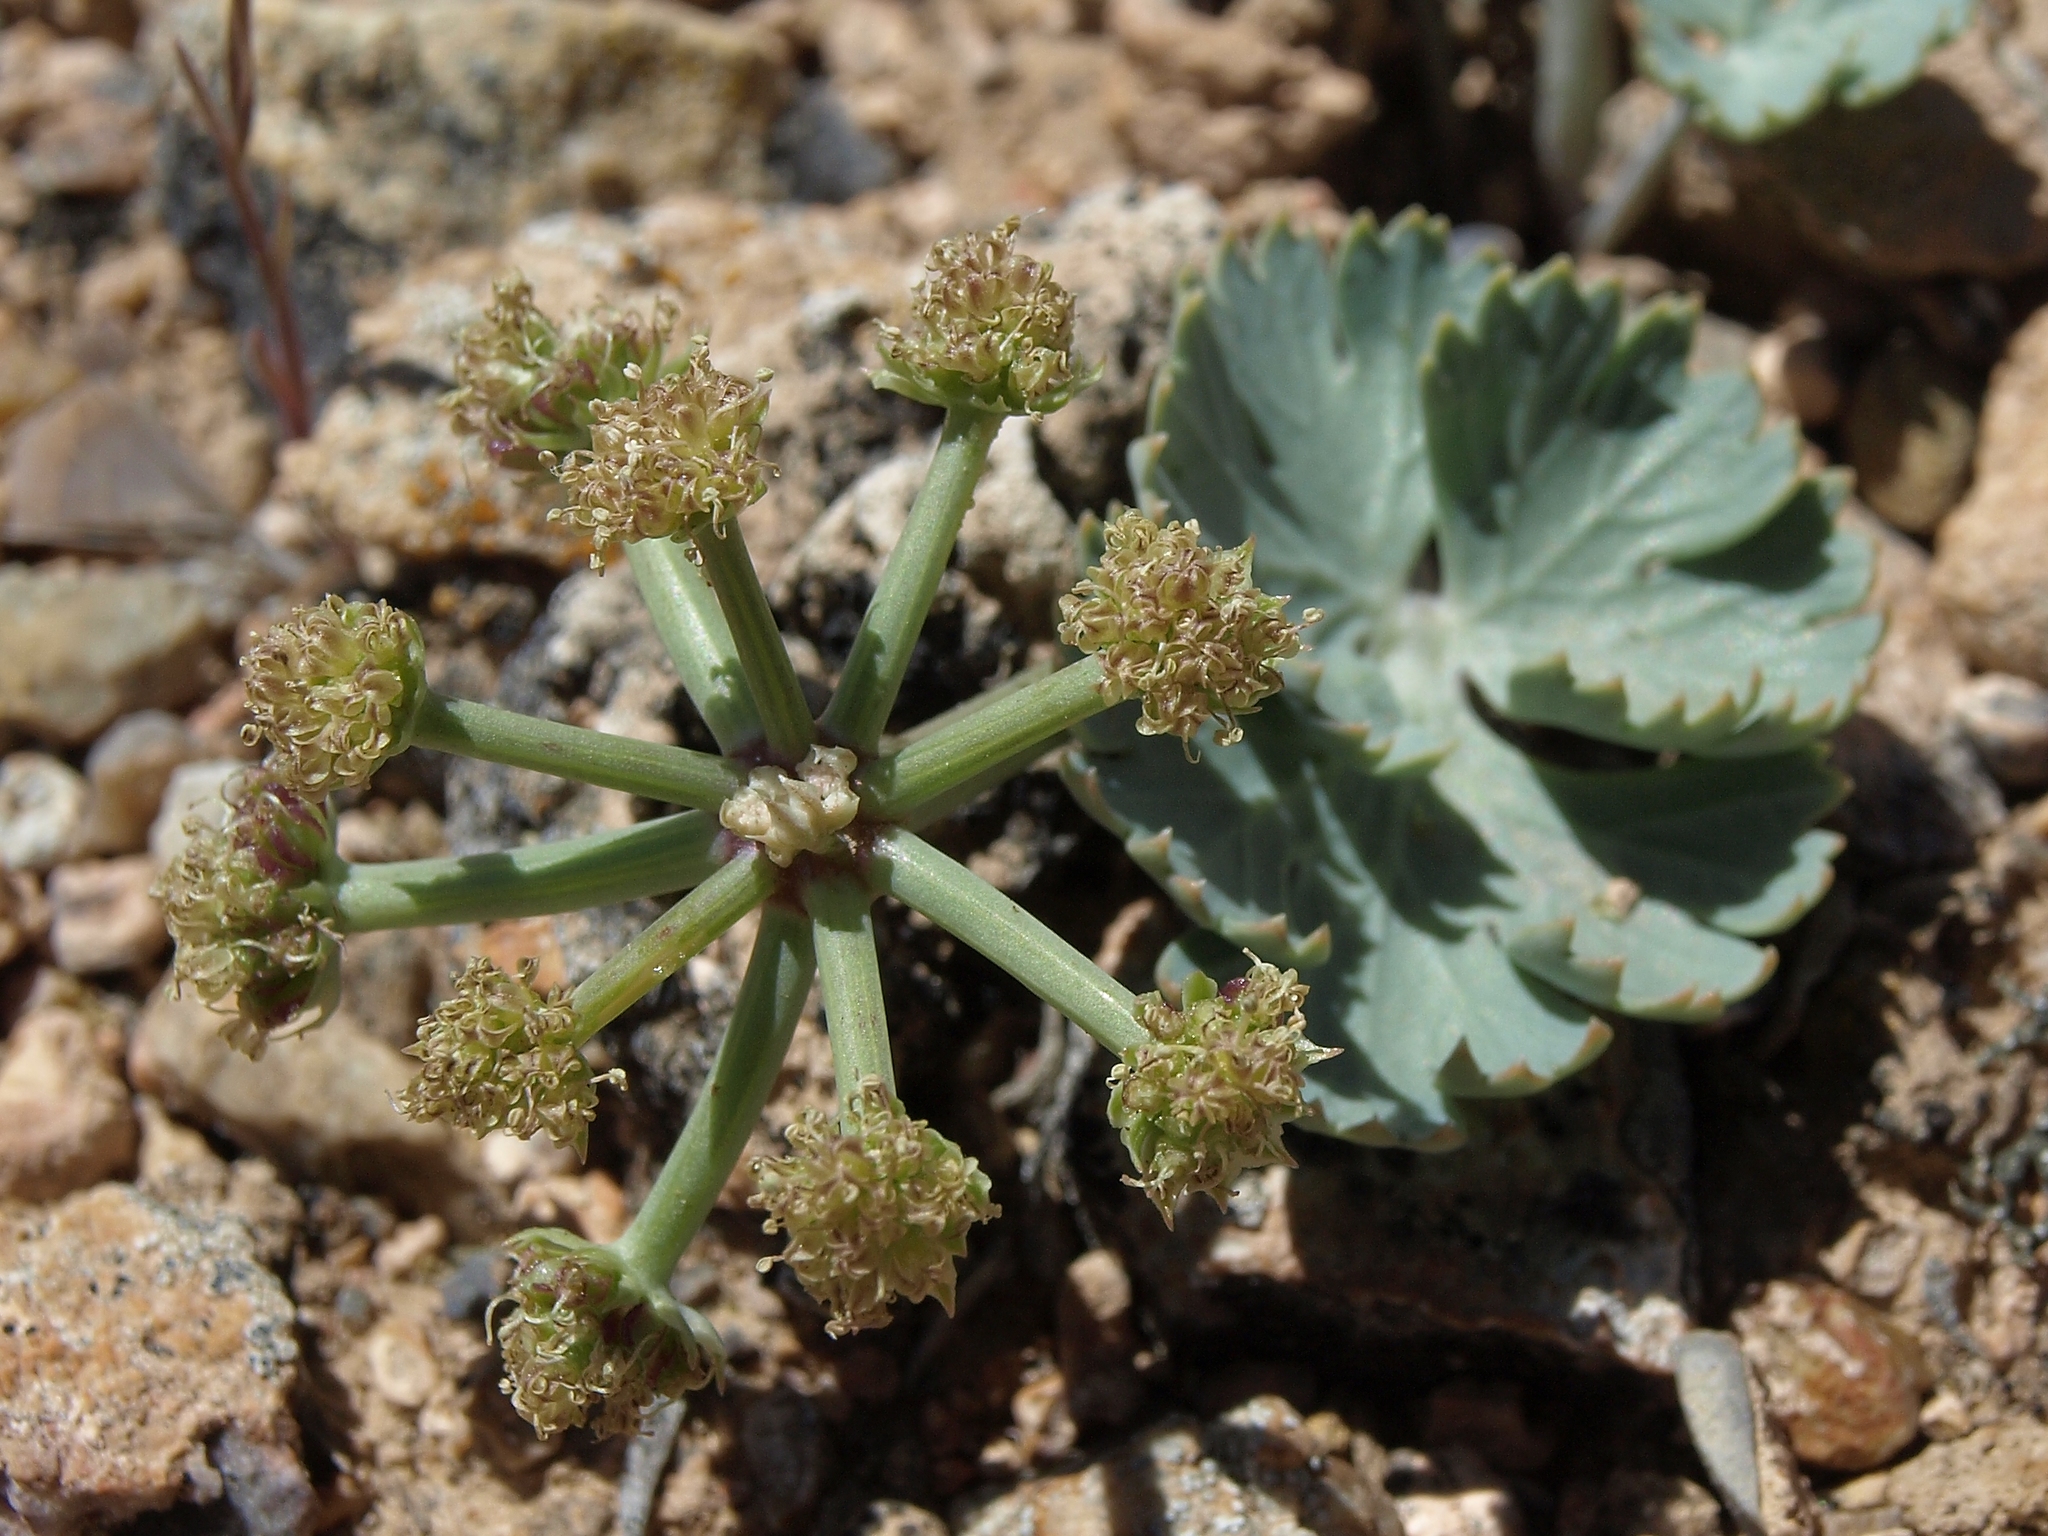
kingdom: Plantae
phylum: Tracheophyta
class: Magnoliopsida
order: Apiales
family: Apiaceae
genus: Aulospermum
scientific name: Aulospermum basalticum
